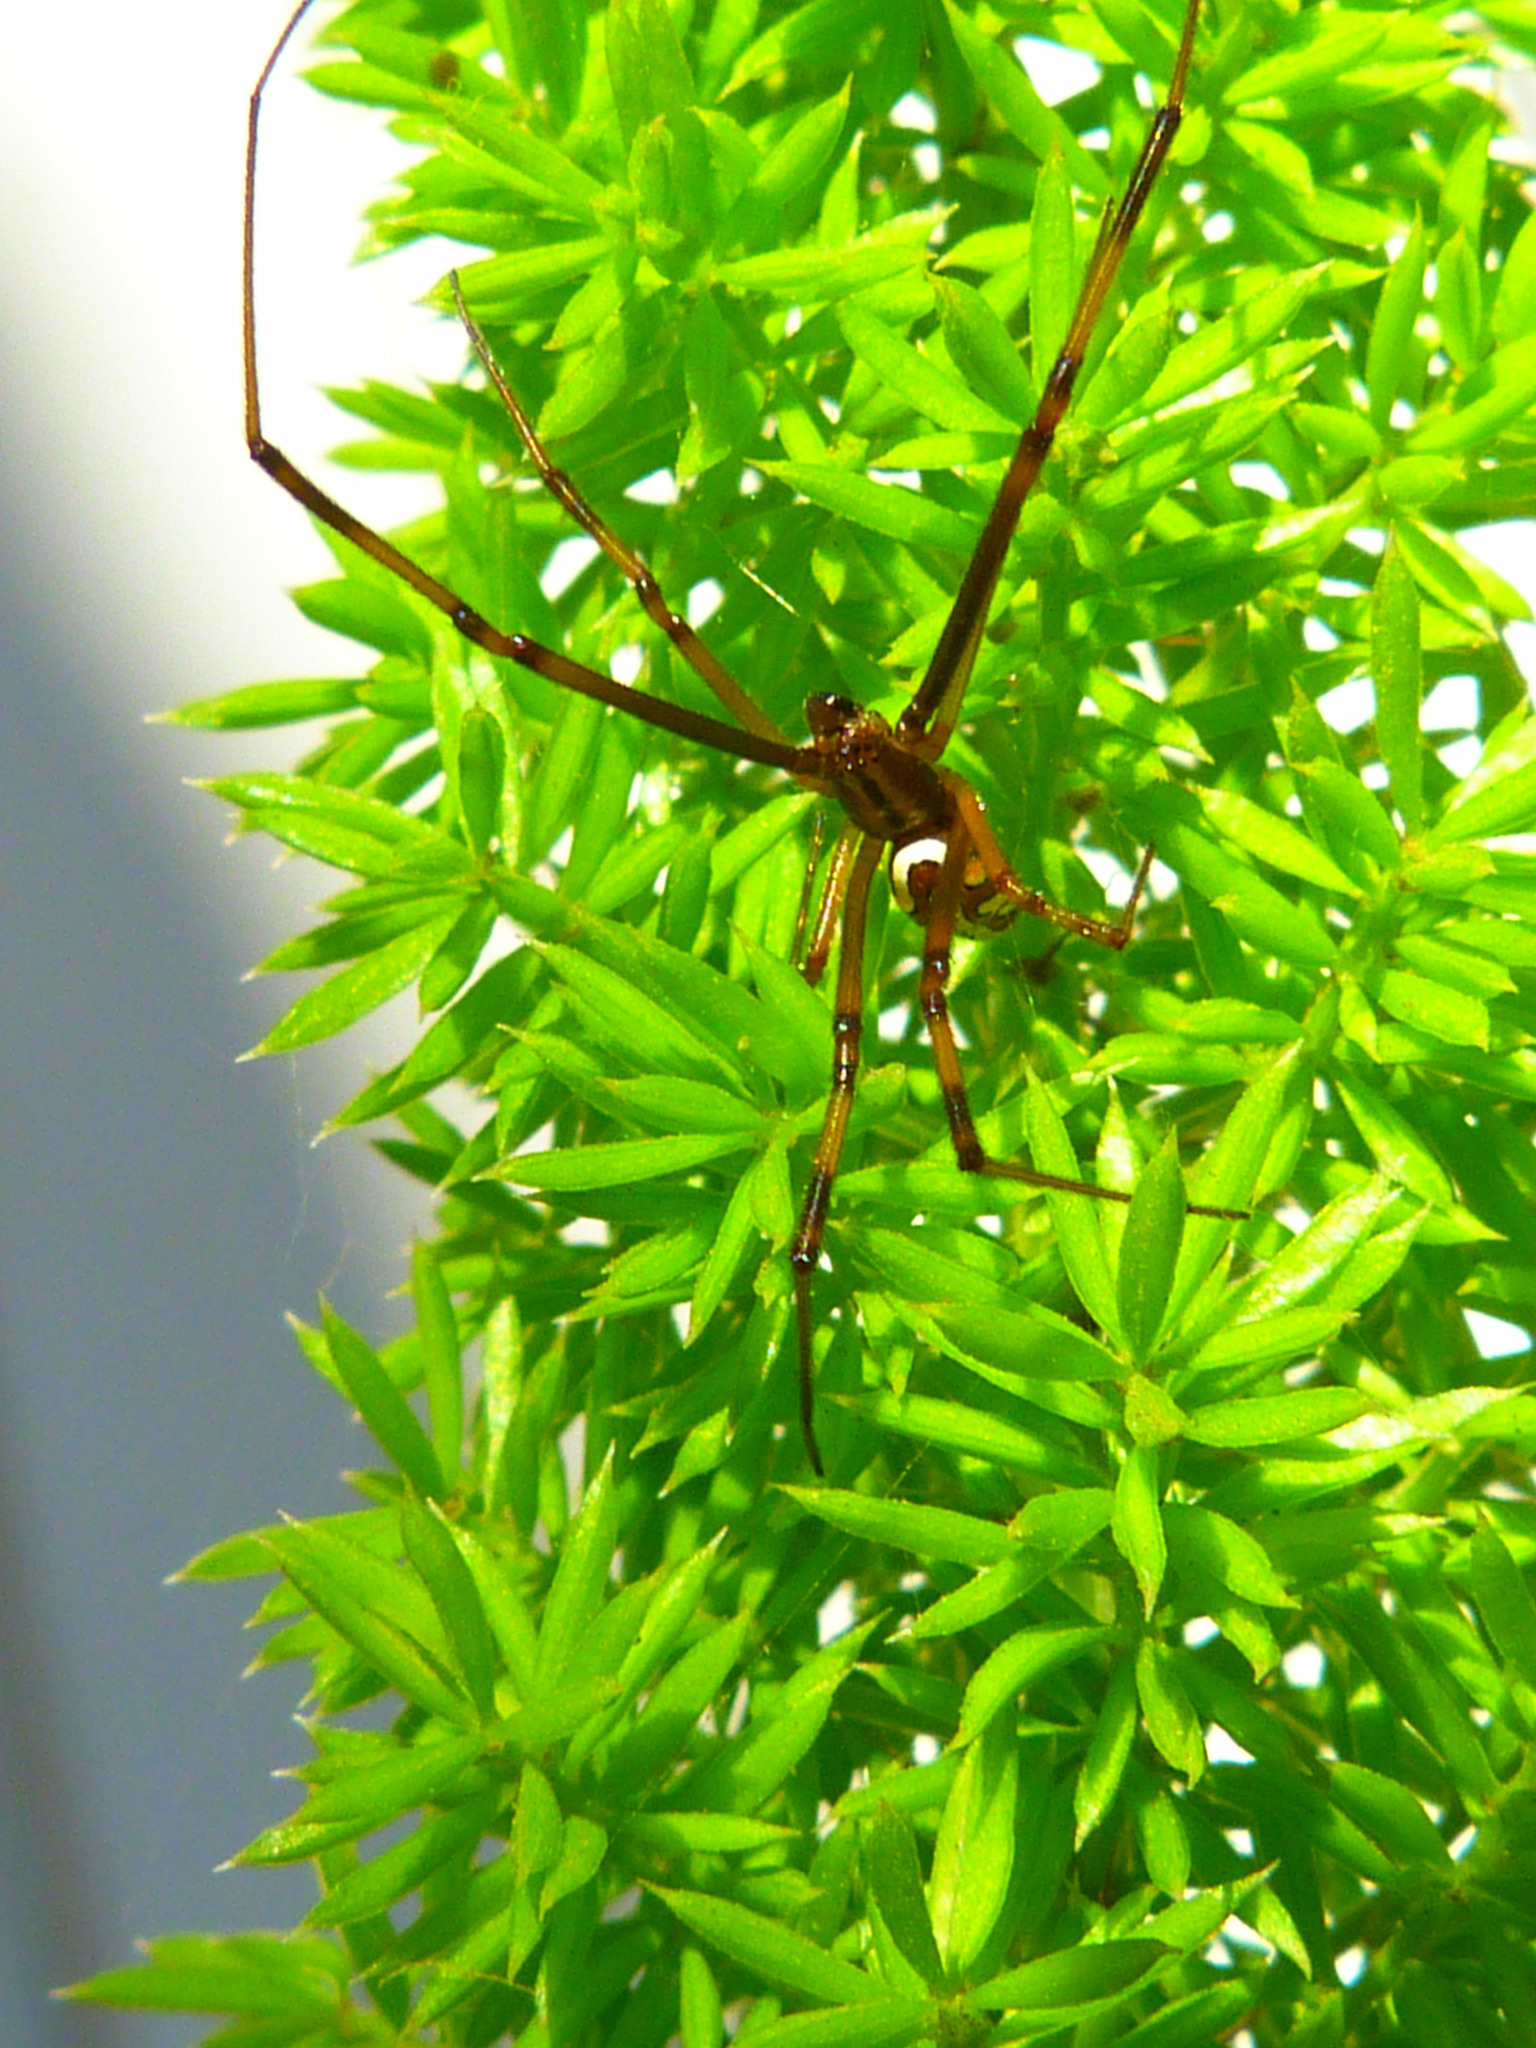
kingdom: Animalia
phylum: Arthropoda
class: Arachnida
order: Araneae
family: Theridiidae
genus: Latrodectus
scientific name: Latrodectus hesperus
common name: Western black widow
